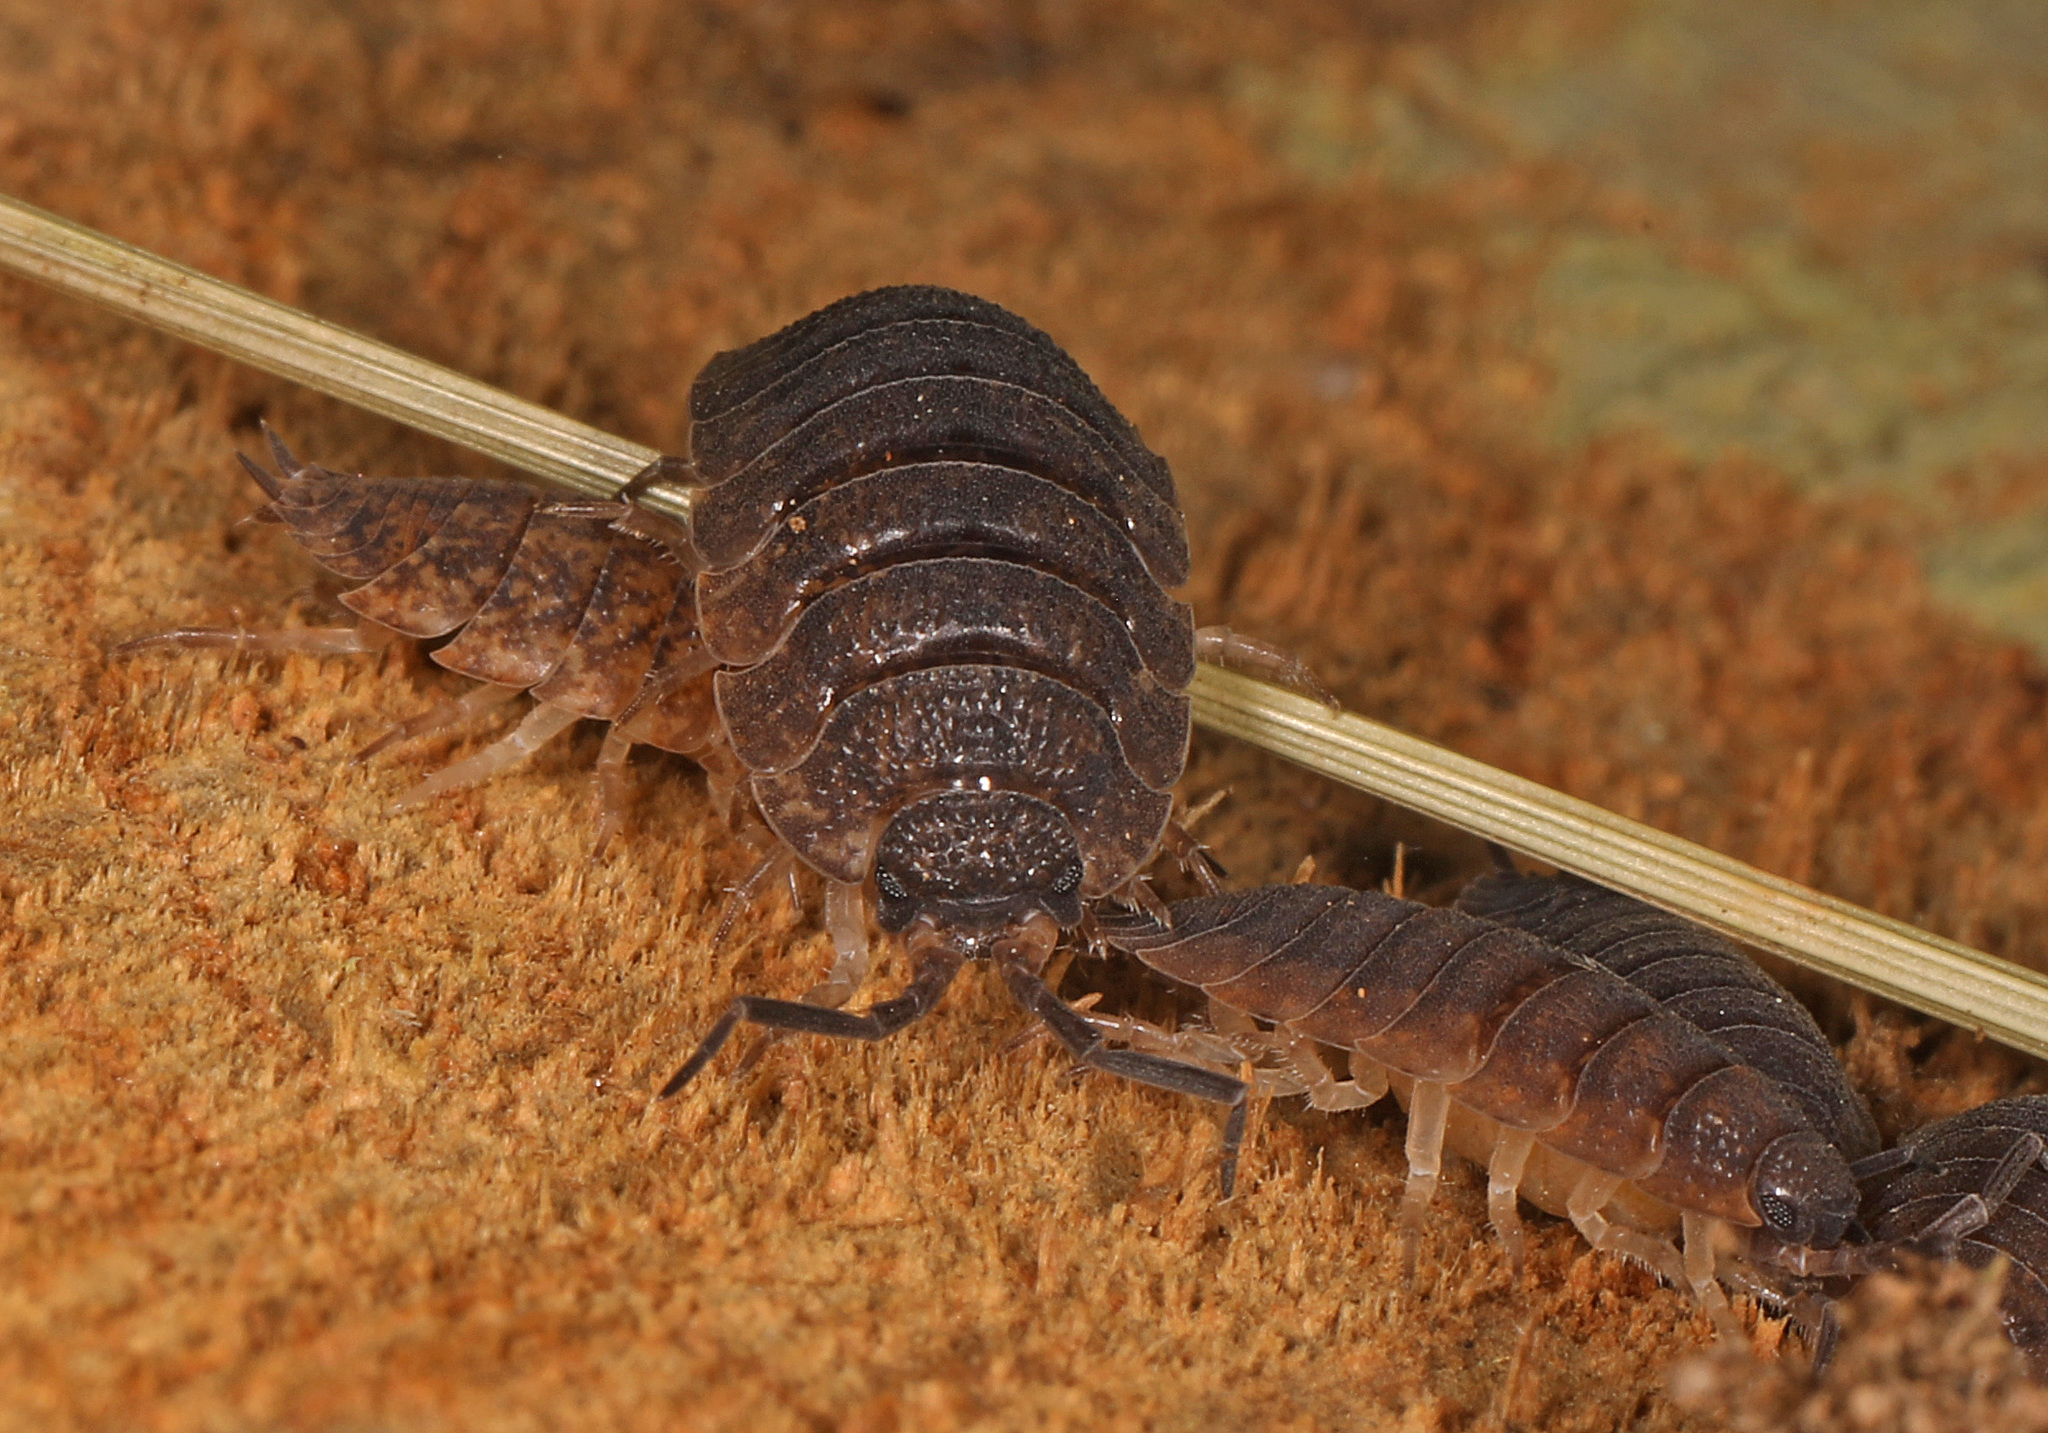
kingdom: Animalia
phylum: Arthropoda
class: Malacostraca
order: Isopoda
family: Porcellionidae
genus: Porcellio
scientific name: Porcellio scaber
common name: Common rough woodlouse
